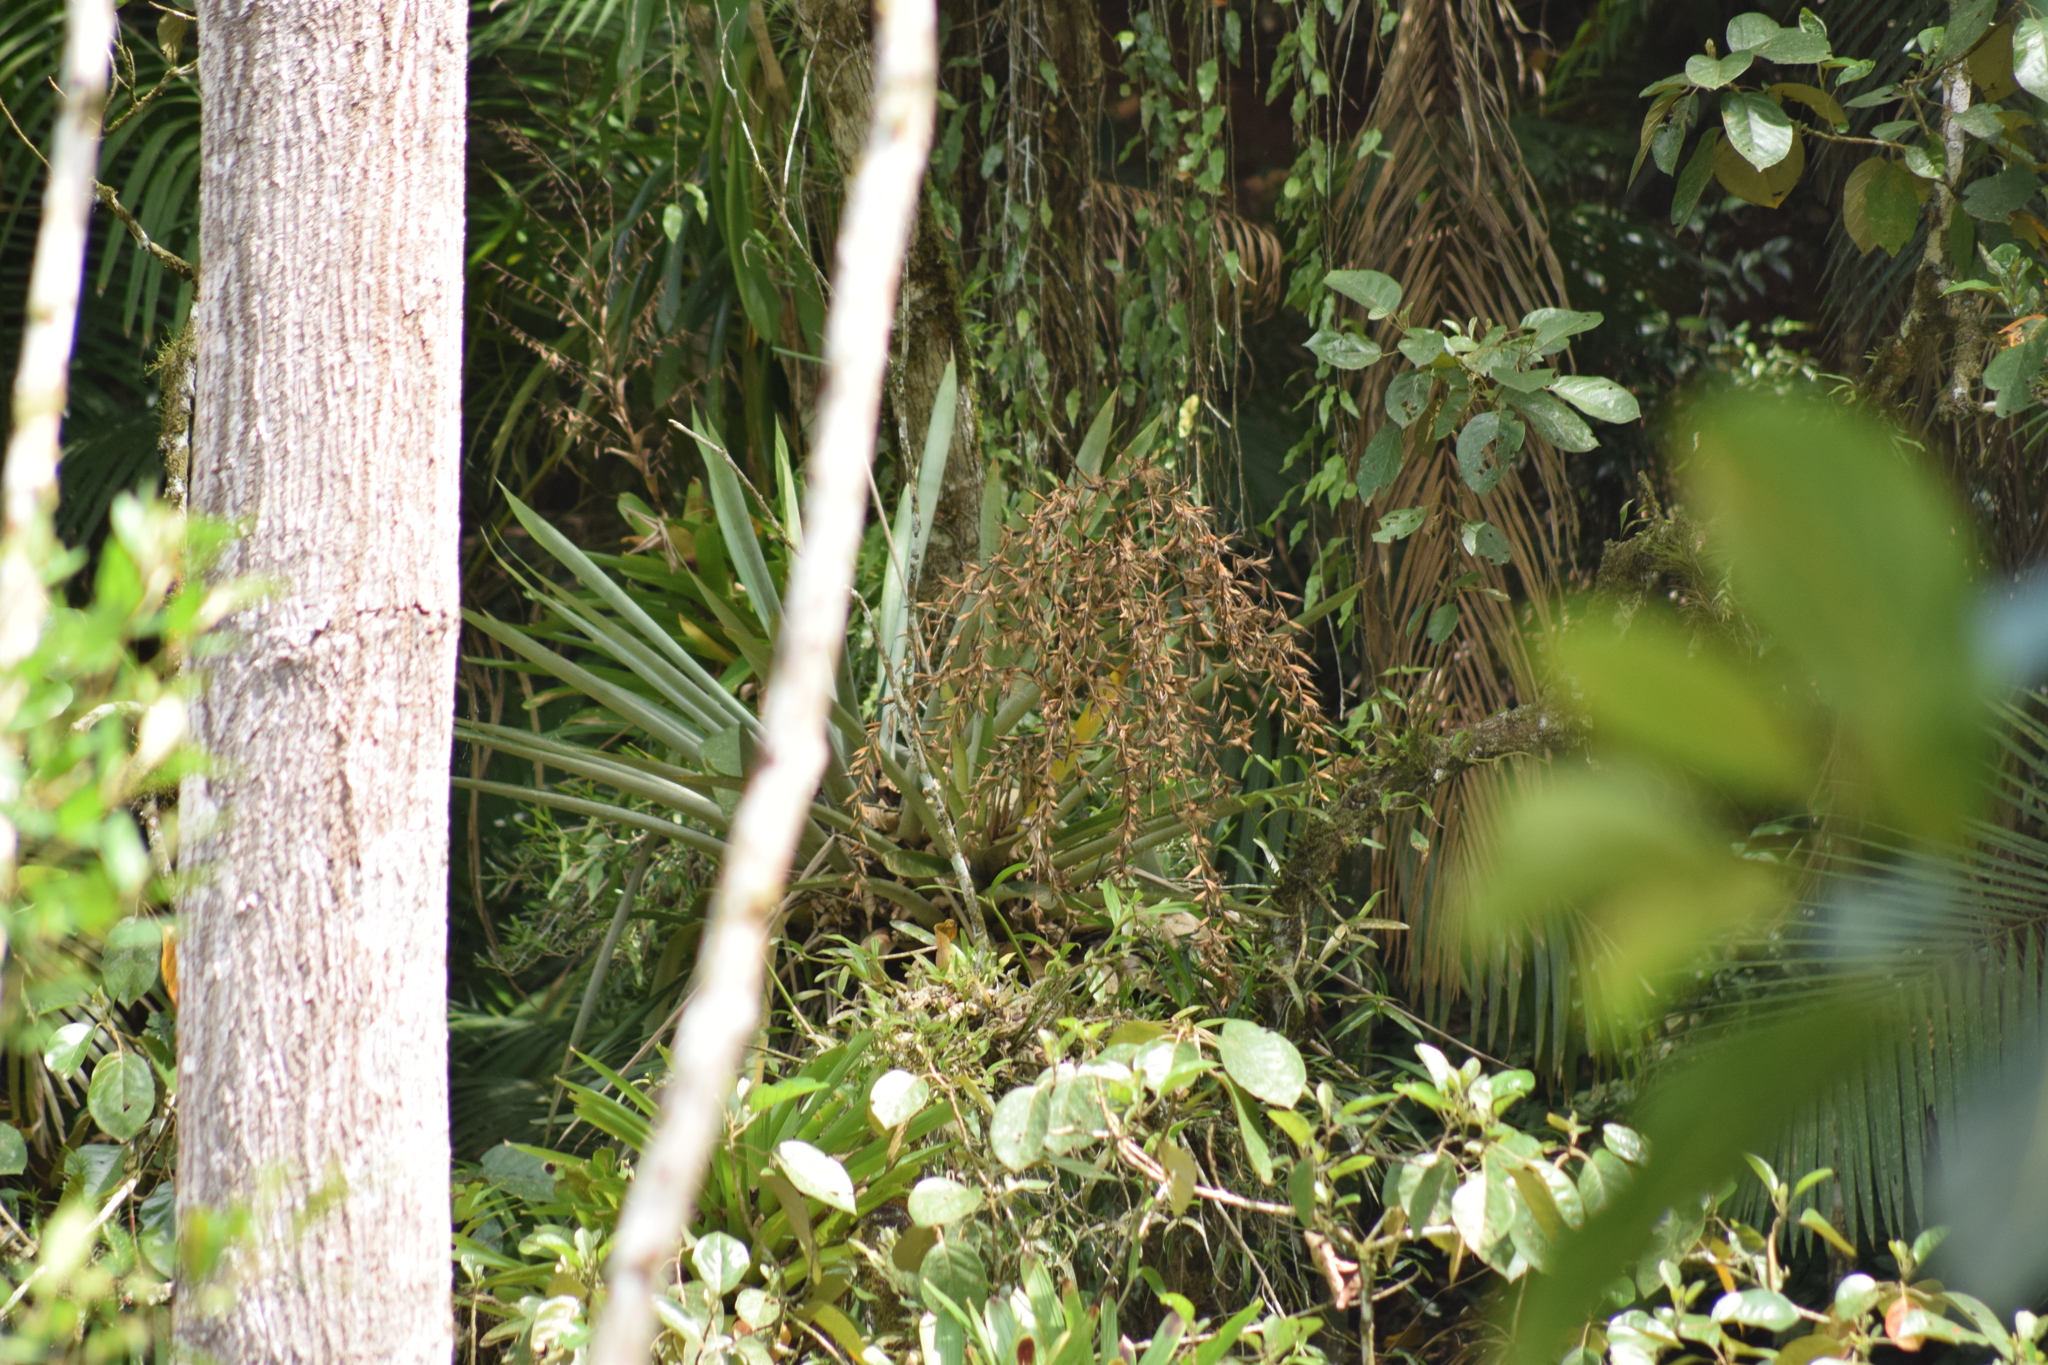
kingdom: Plantae
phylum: Tracheophyta
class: Liliopsida
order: Poales
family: Bromeliaceae
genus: Vriesea
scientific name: Vriesea paratiensis
